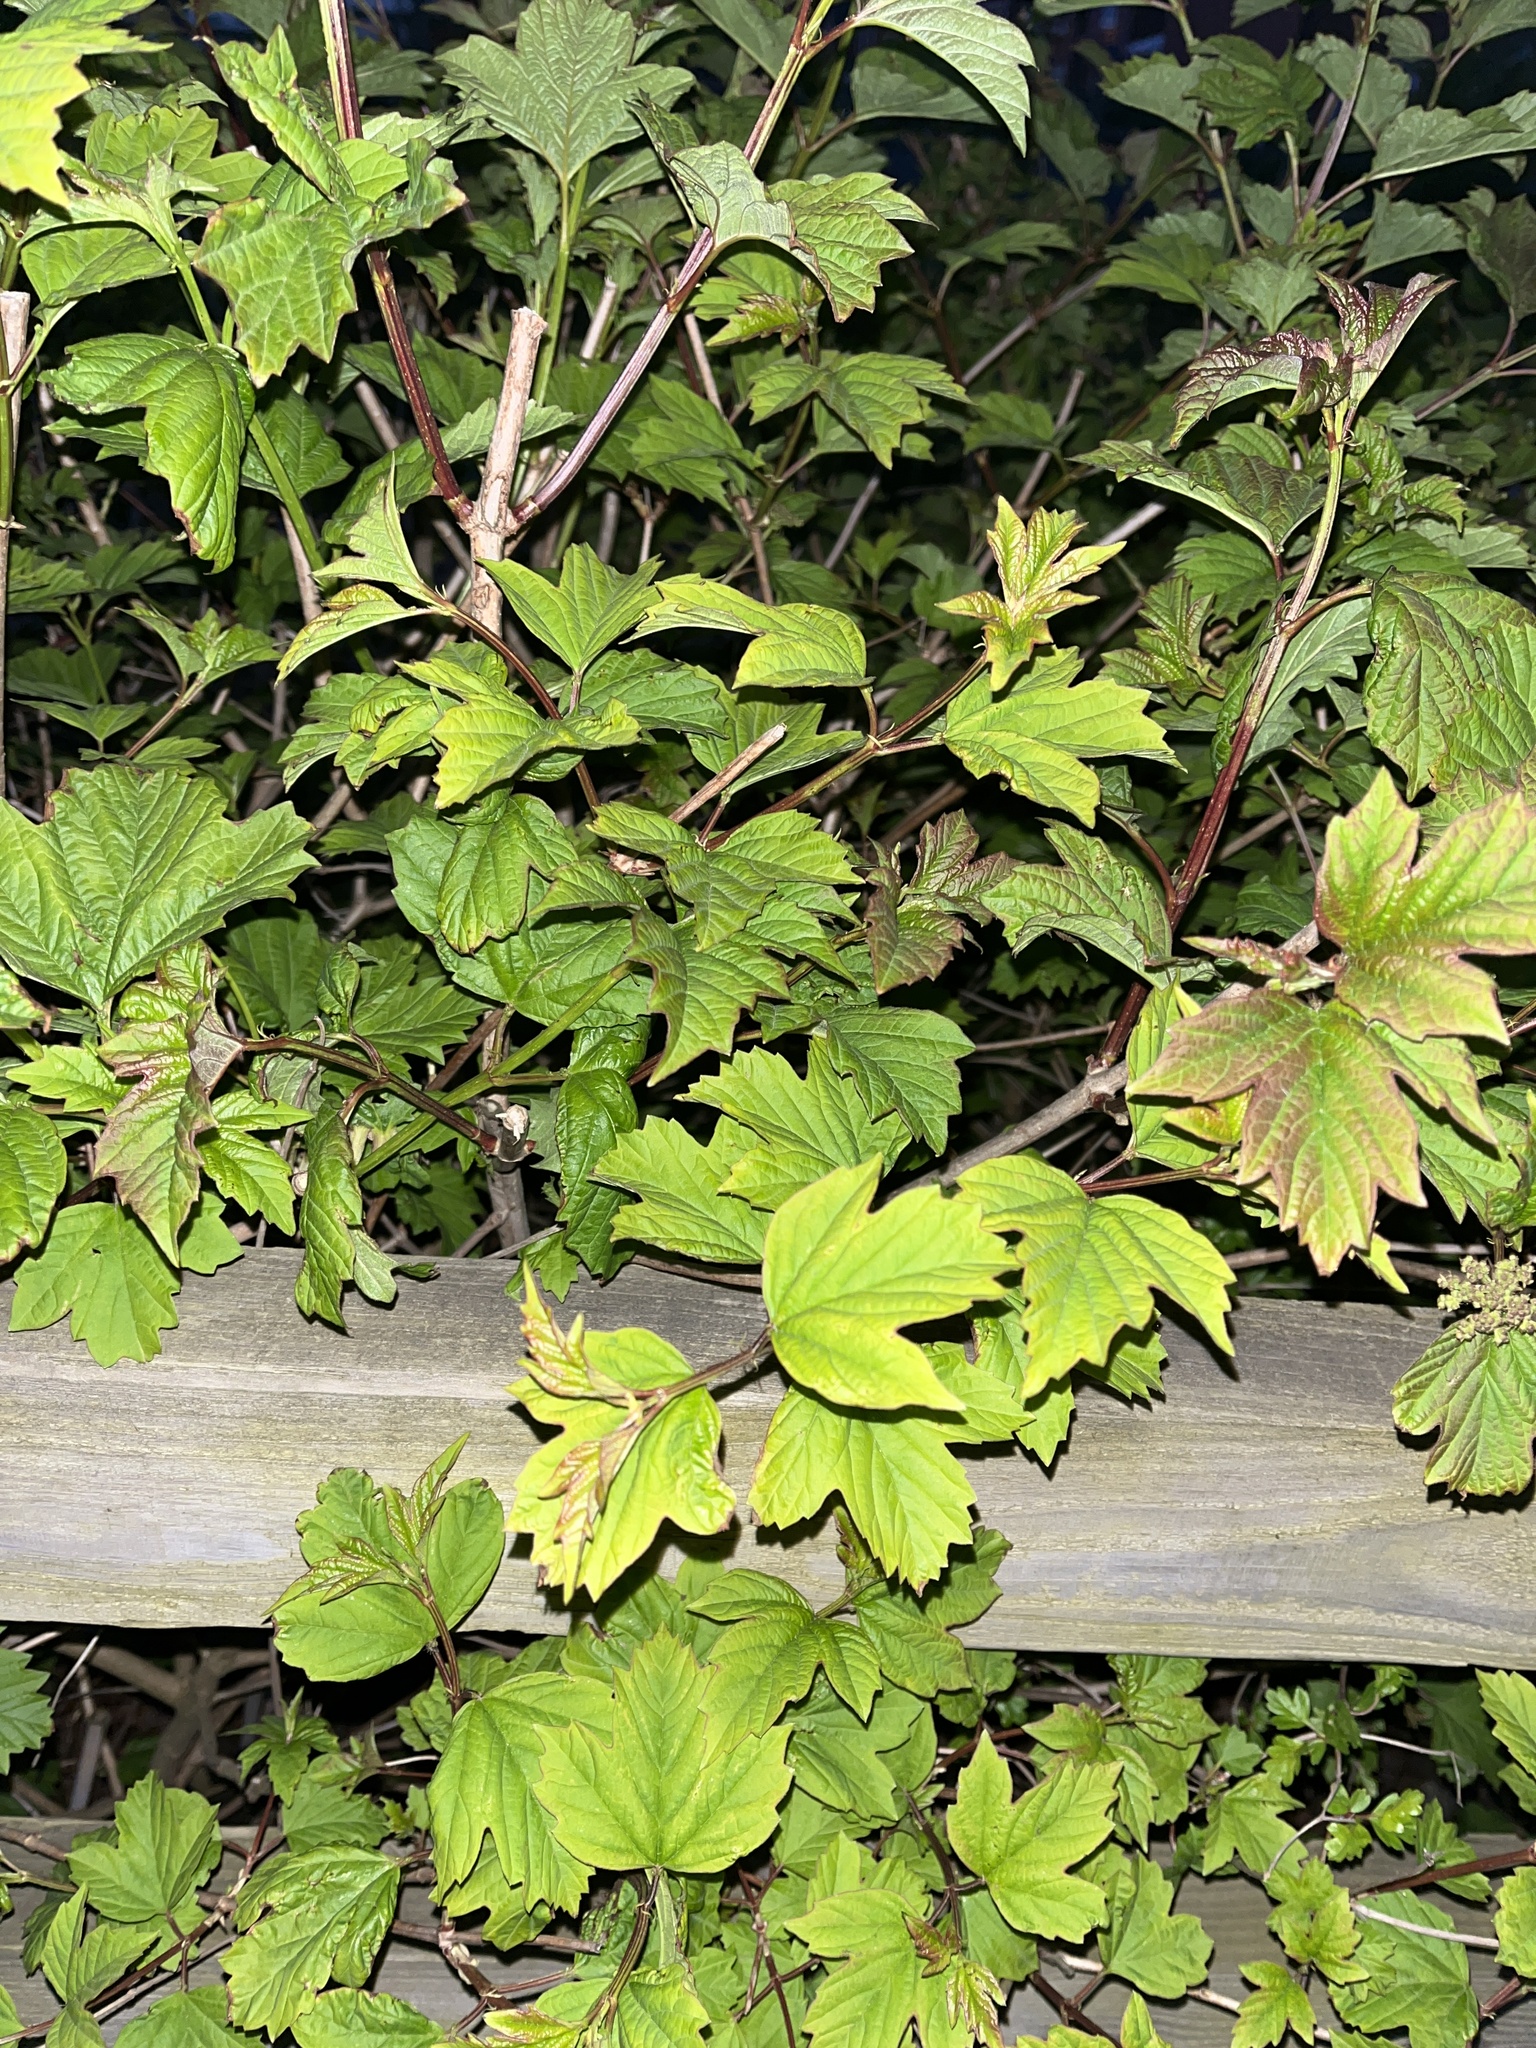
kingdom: Plantae
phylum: Tracheophyta
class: Magnoliopsida
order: Dipsacales
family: Viburnaceae
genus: Viburnum
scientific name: Viburnum opulus
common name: Guelder-rose
